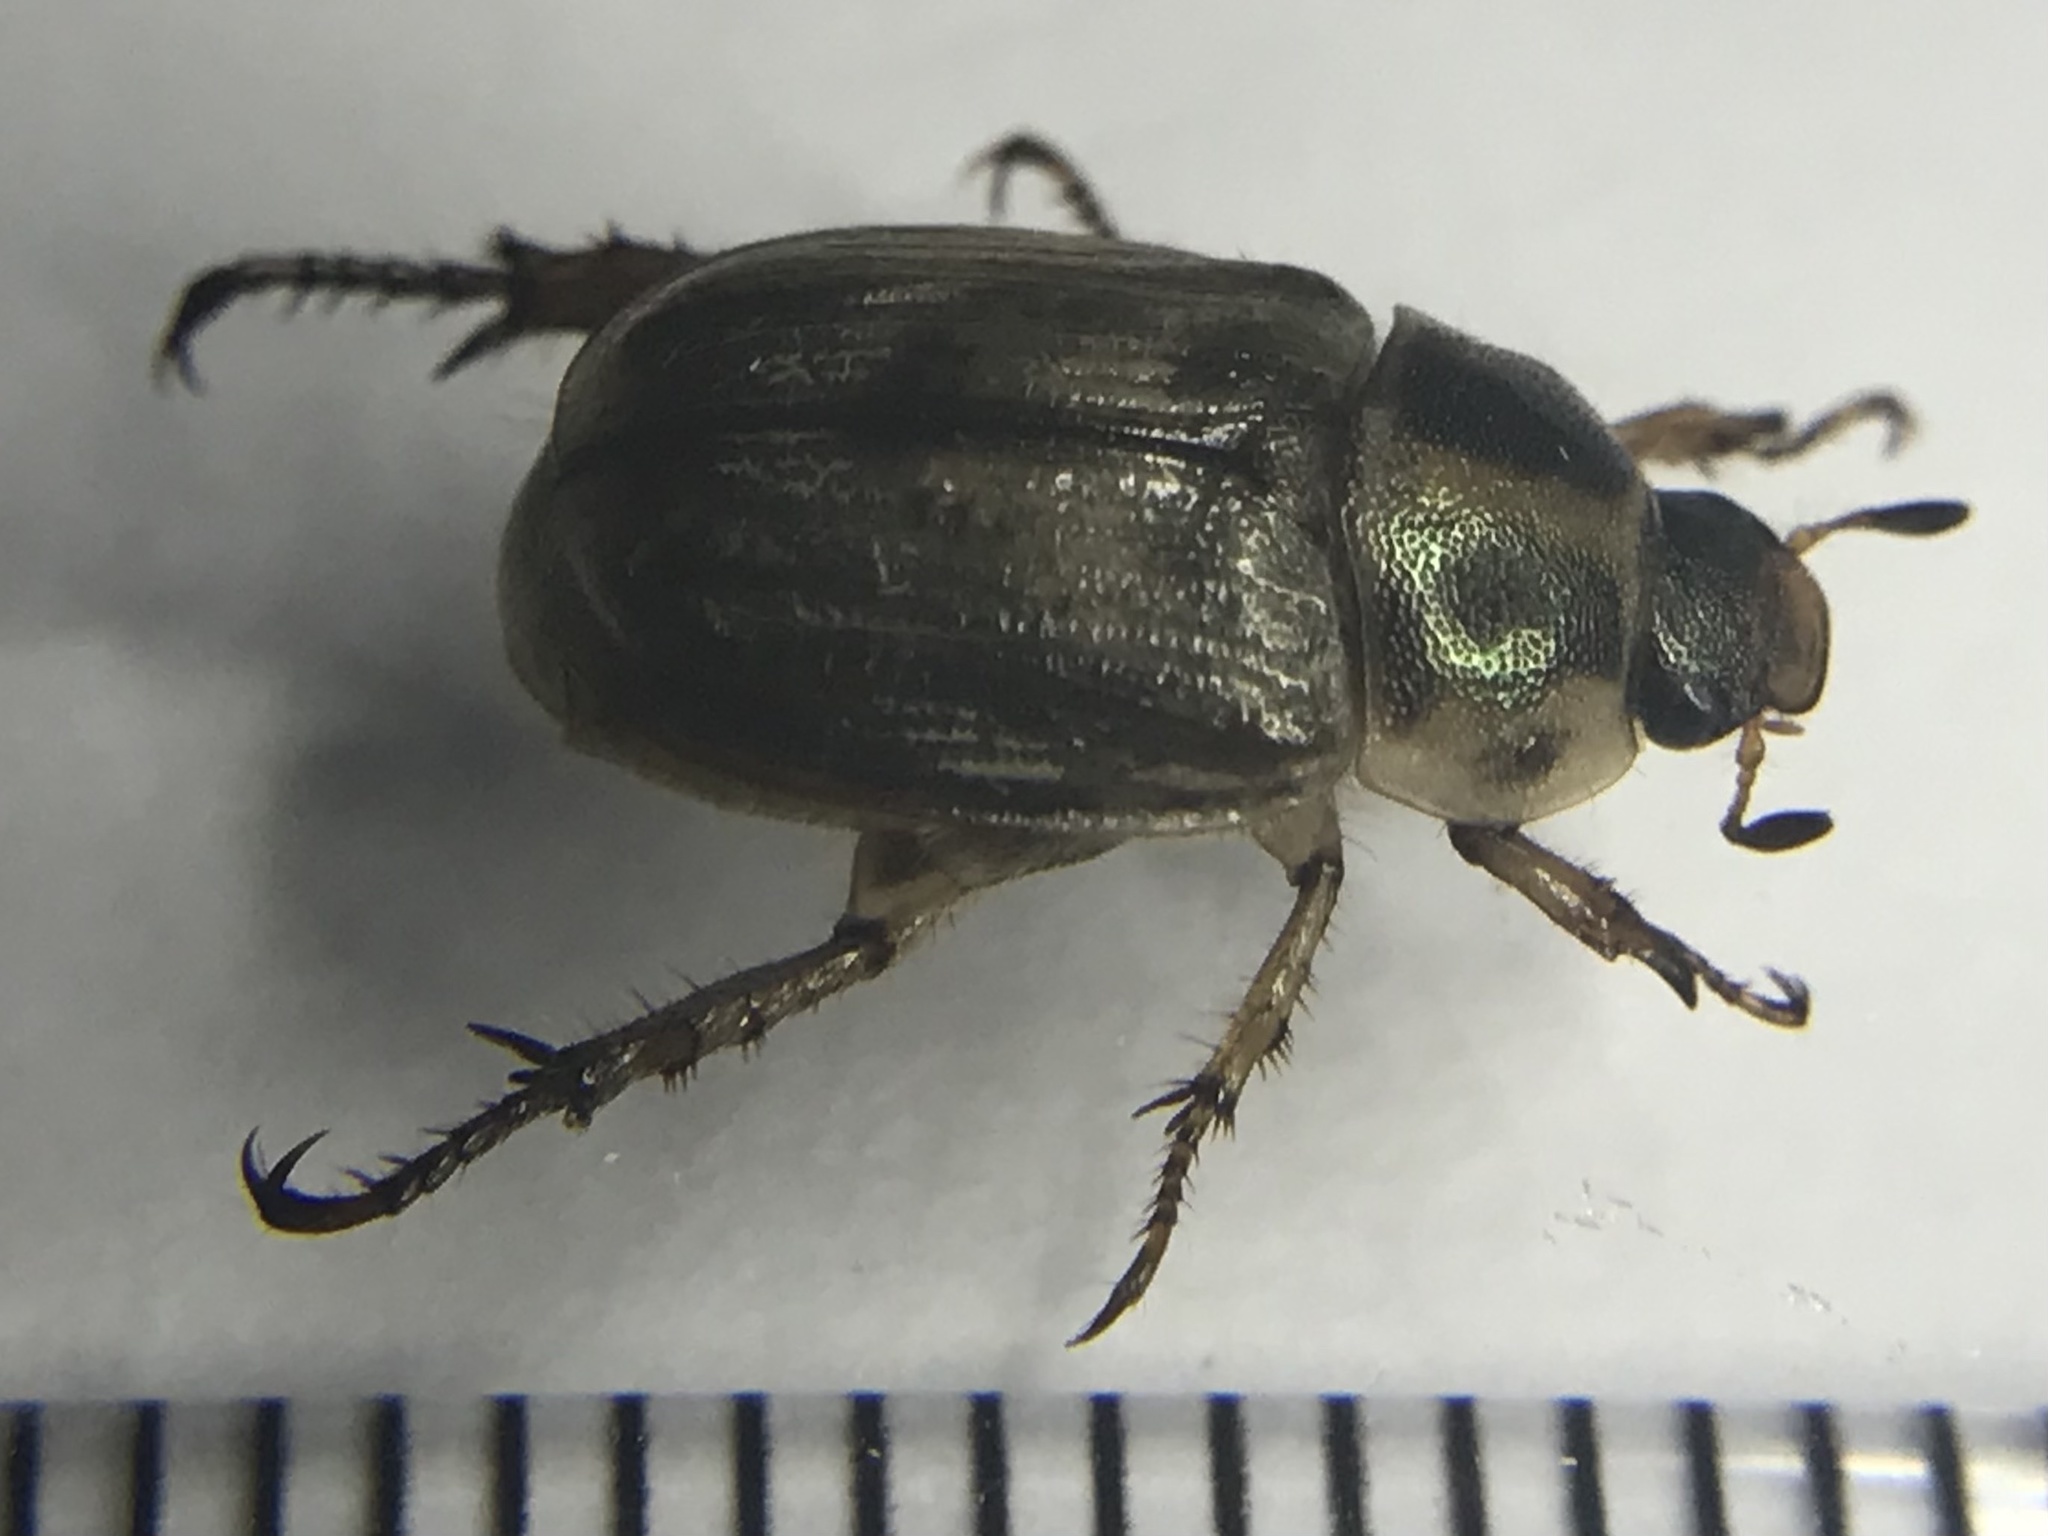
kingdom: Animalia
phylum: Arthropoda
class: Insecta
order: Coleoptera
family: Scarabaeidae
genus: Exomala
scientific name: Exomala orientalis
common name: Oriental beetle
